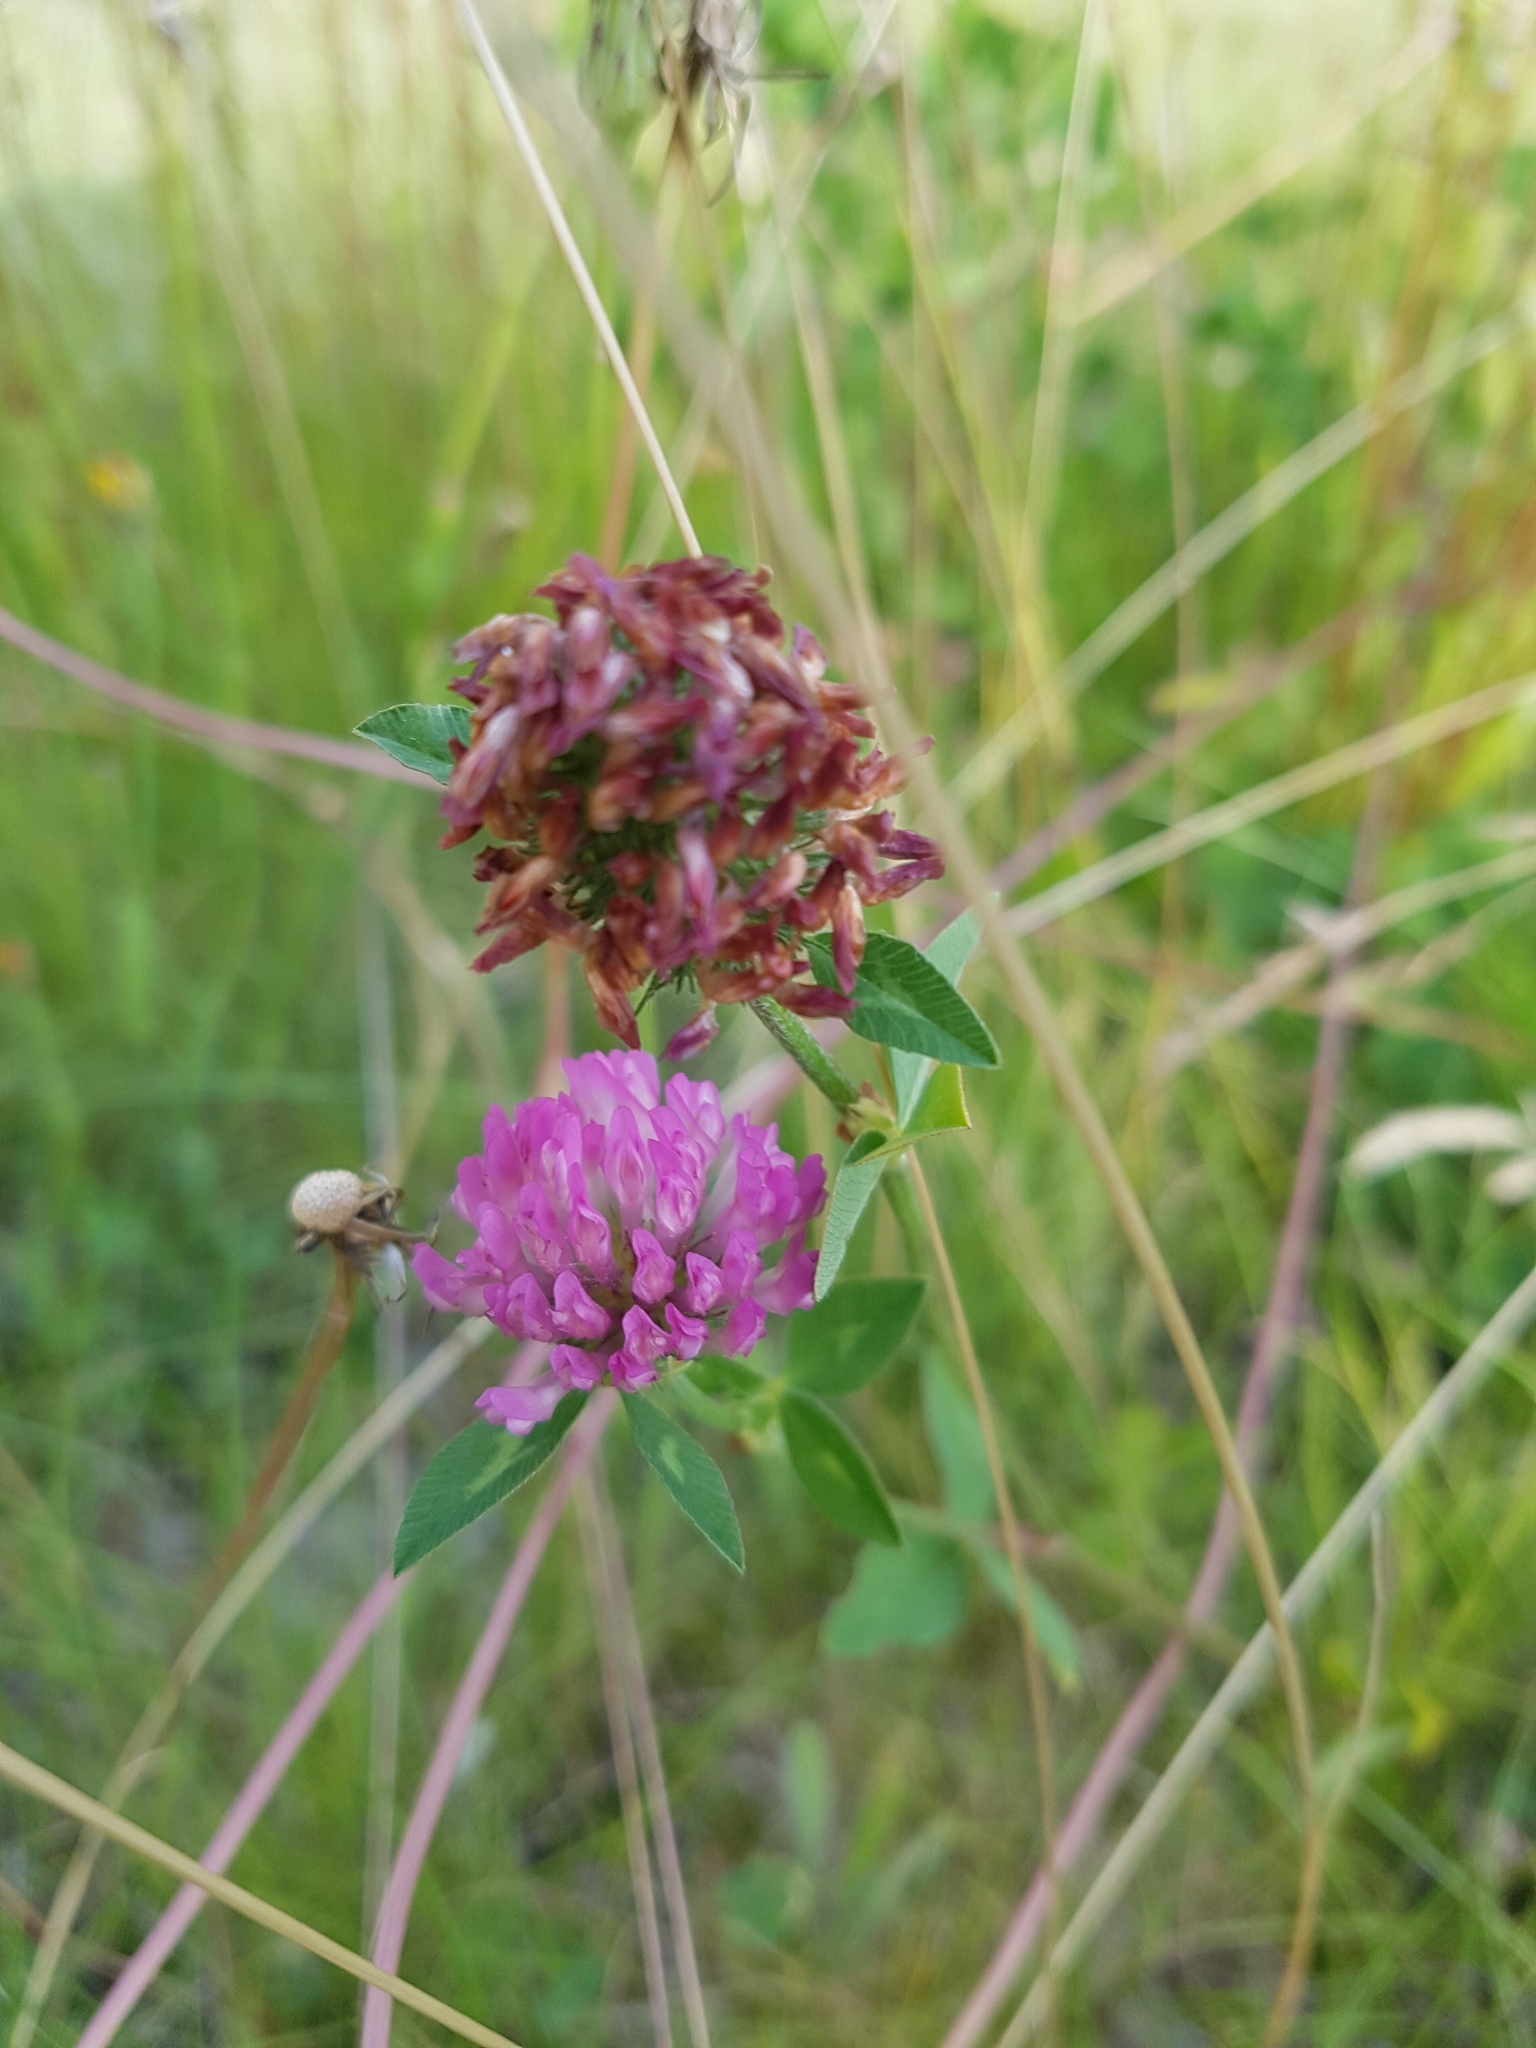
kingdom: Plantae
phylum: Tracheophyta
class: Magnoliopsida
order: Fabales
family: Fabaceae
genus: Trifolium
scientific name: Trifolium pratense
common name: Red clover
